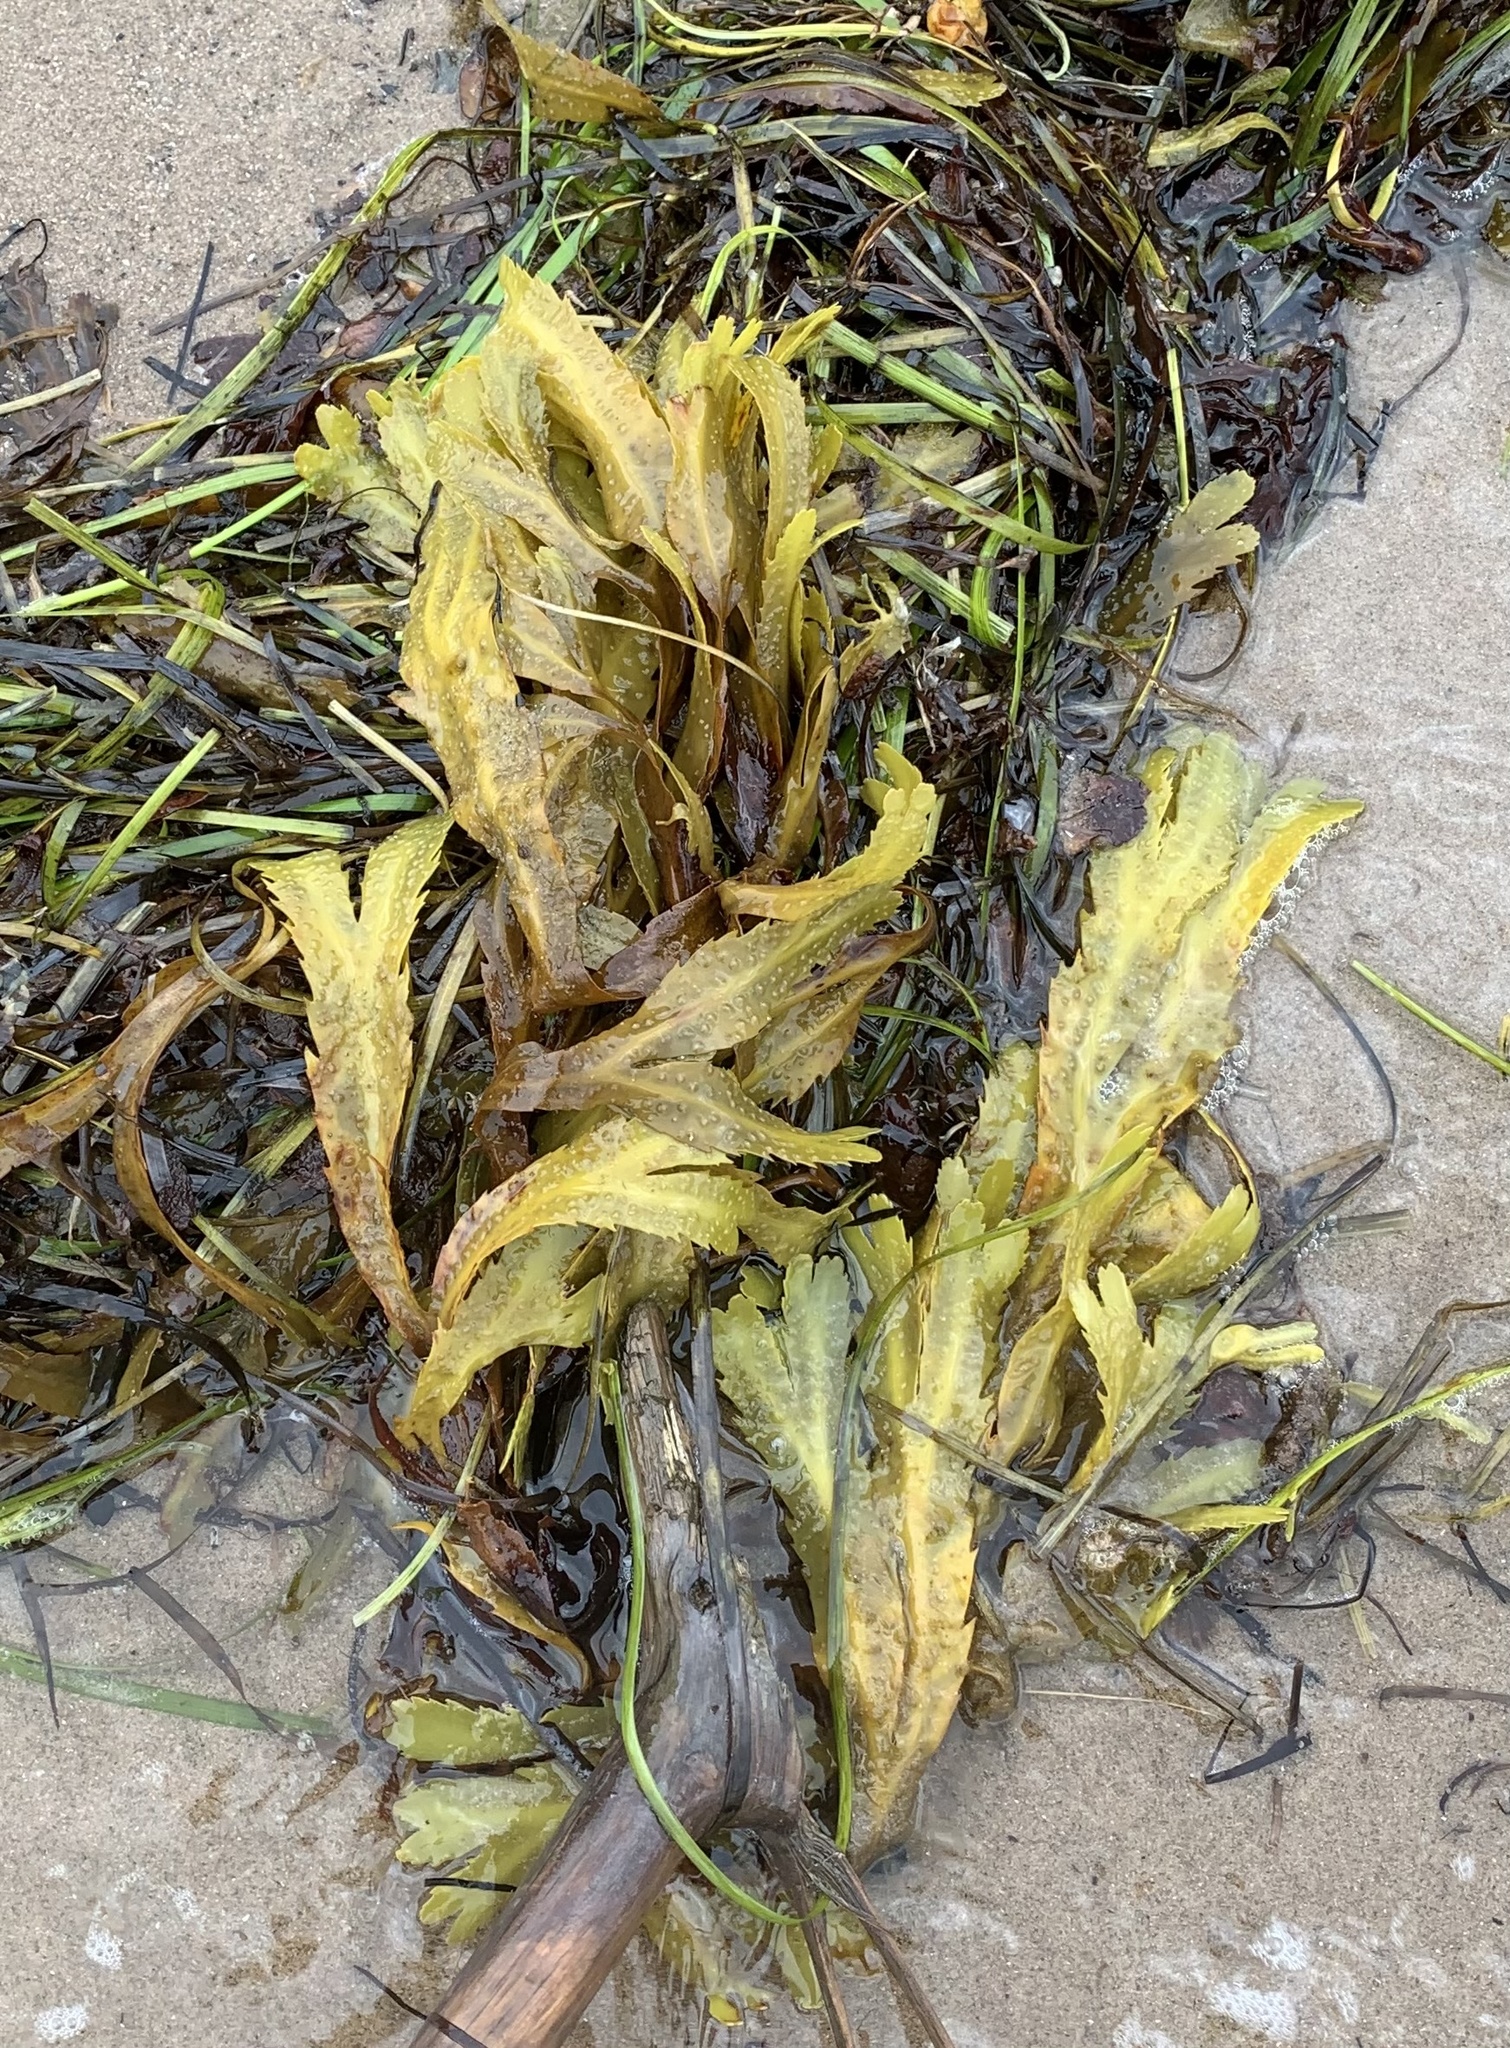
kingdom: Chromista
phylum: Ochrophyta
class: Phaeophyceae
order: Fucales
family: Fucaceae
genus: Fucus
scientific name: Fucus serratus
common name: Toothed wrack
